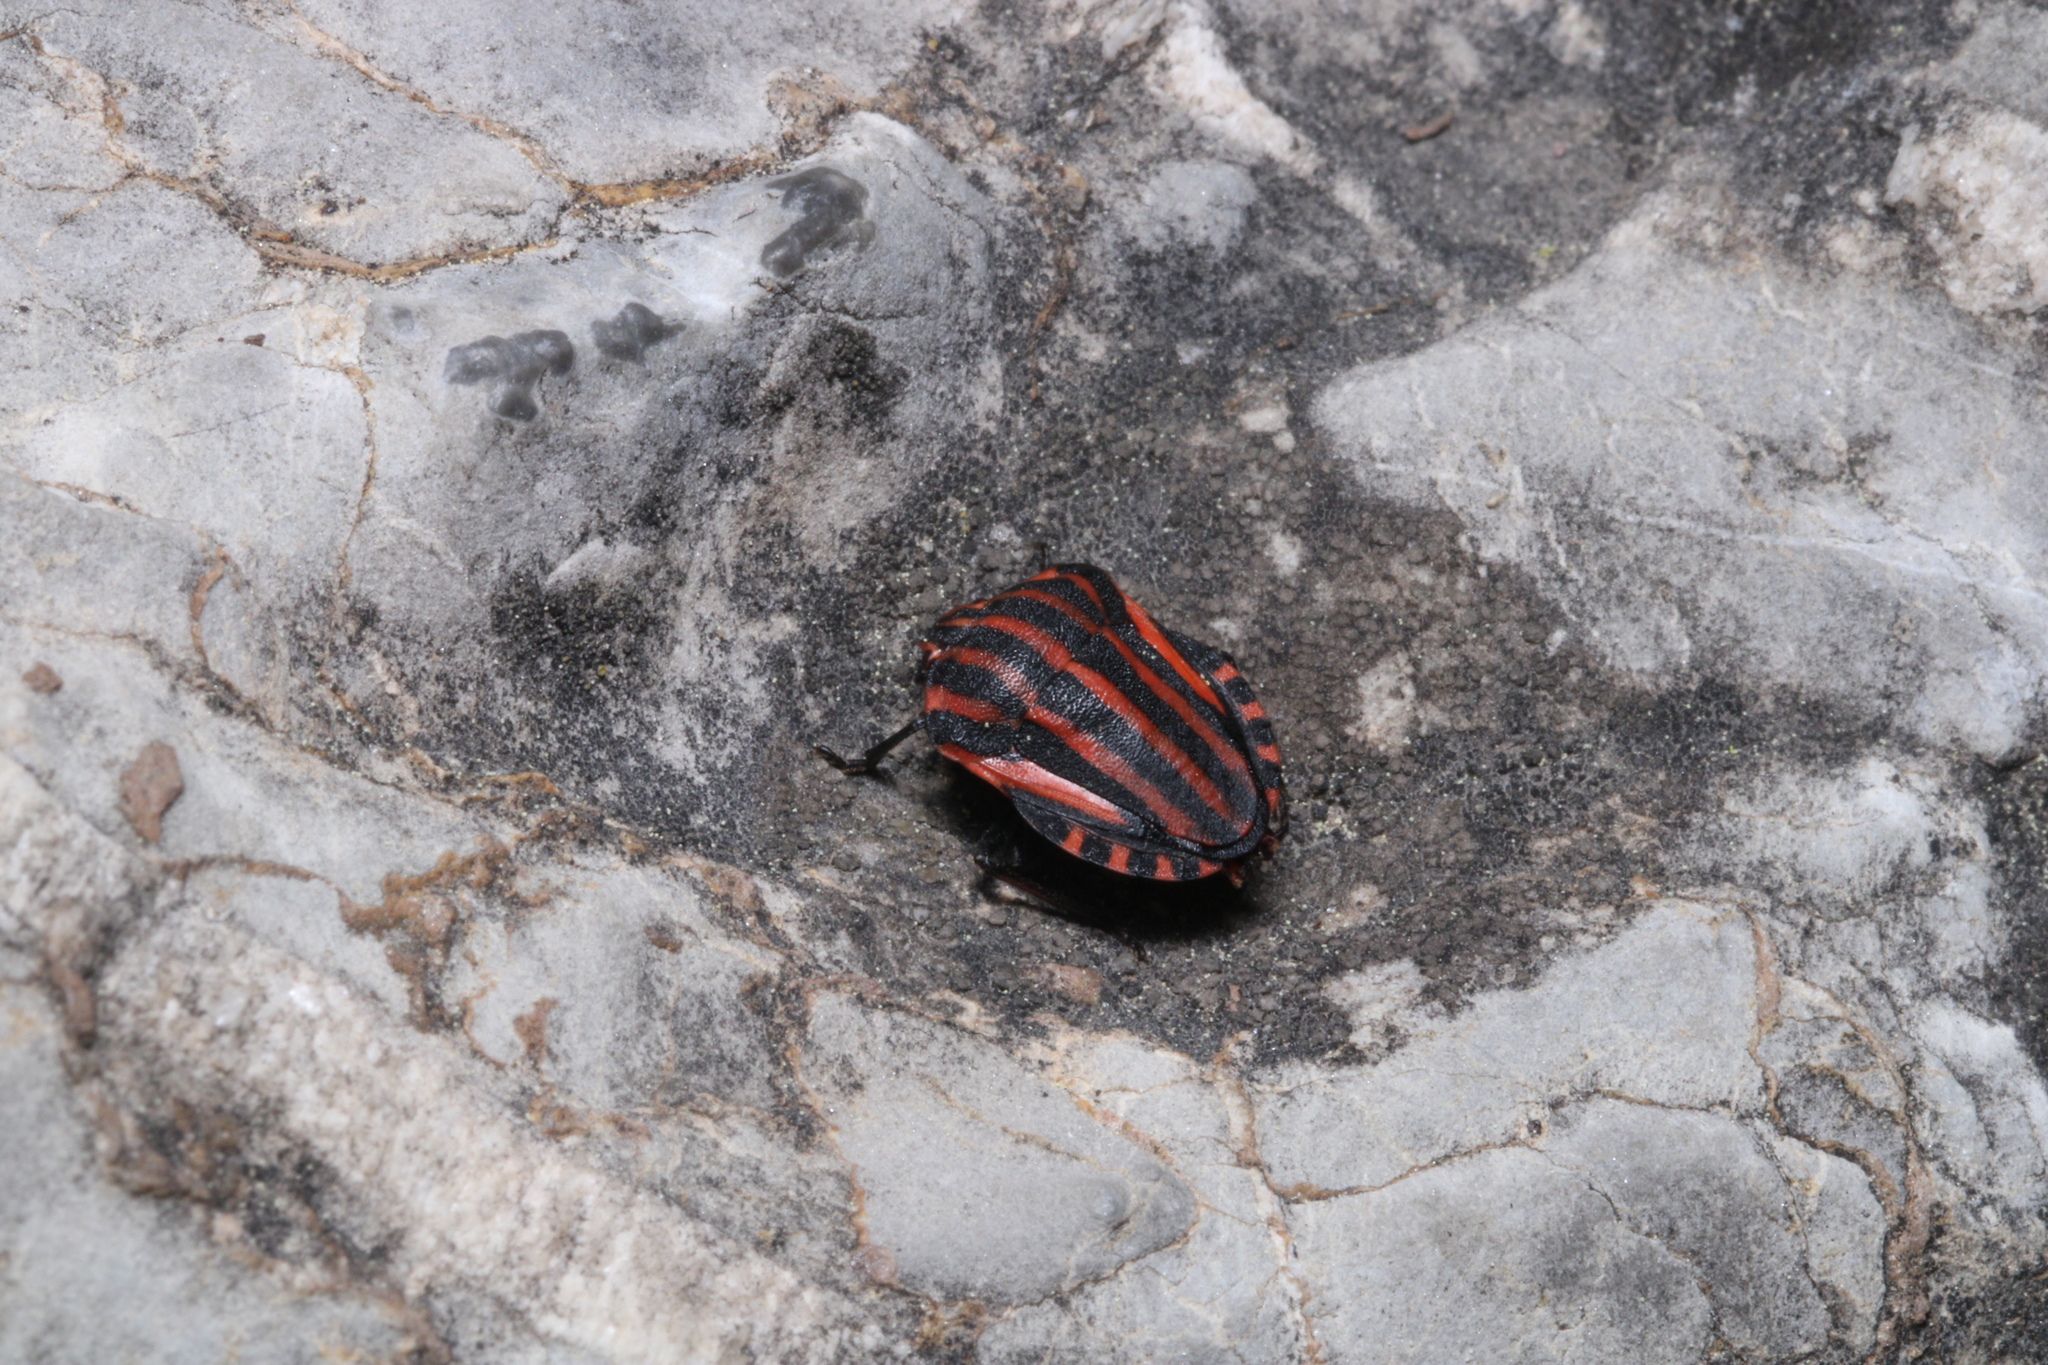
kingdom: Animalia
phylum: Arthropoda
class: Insecta
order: Hemiptera
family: Pentatomidae
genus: Graphosoma
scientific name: Graphosoma italicum
